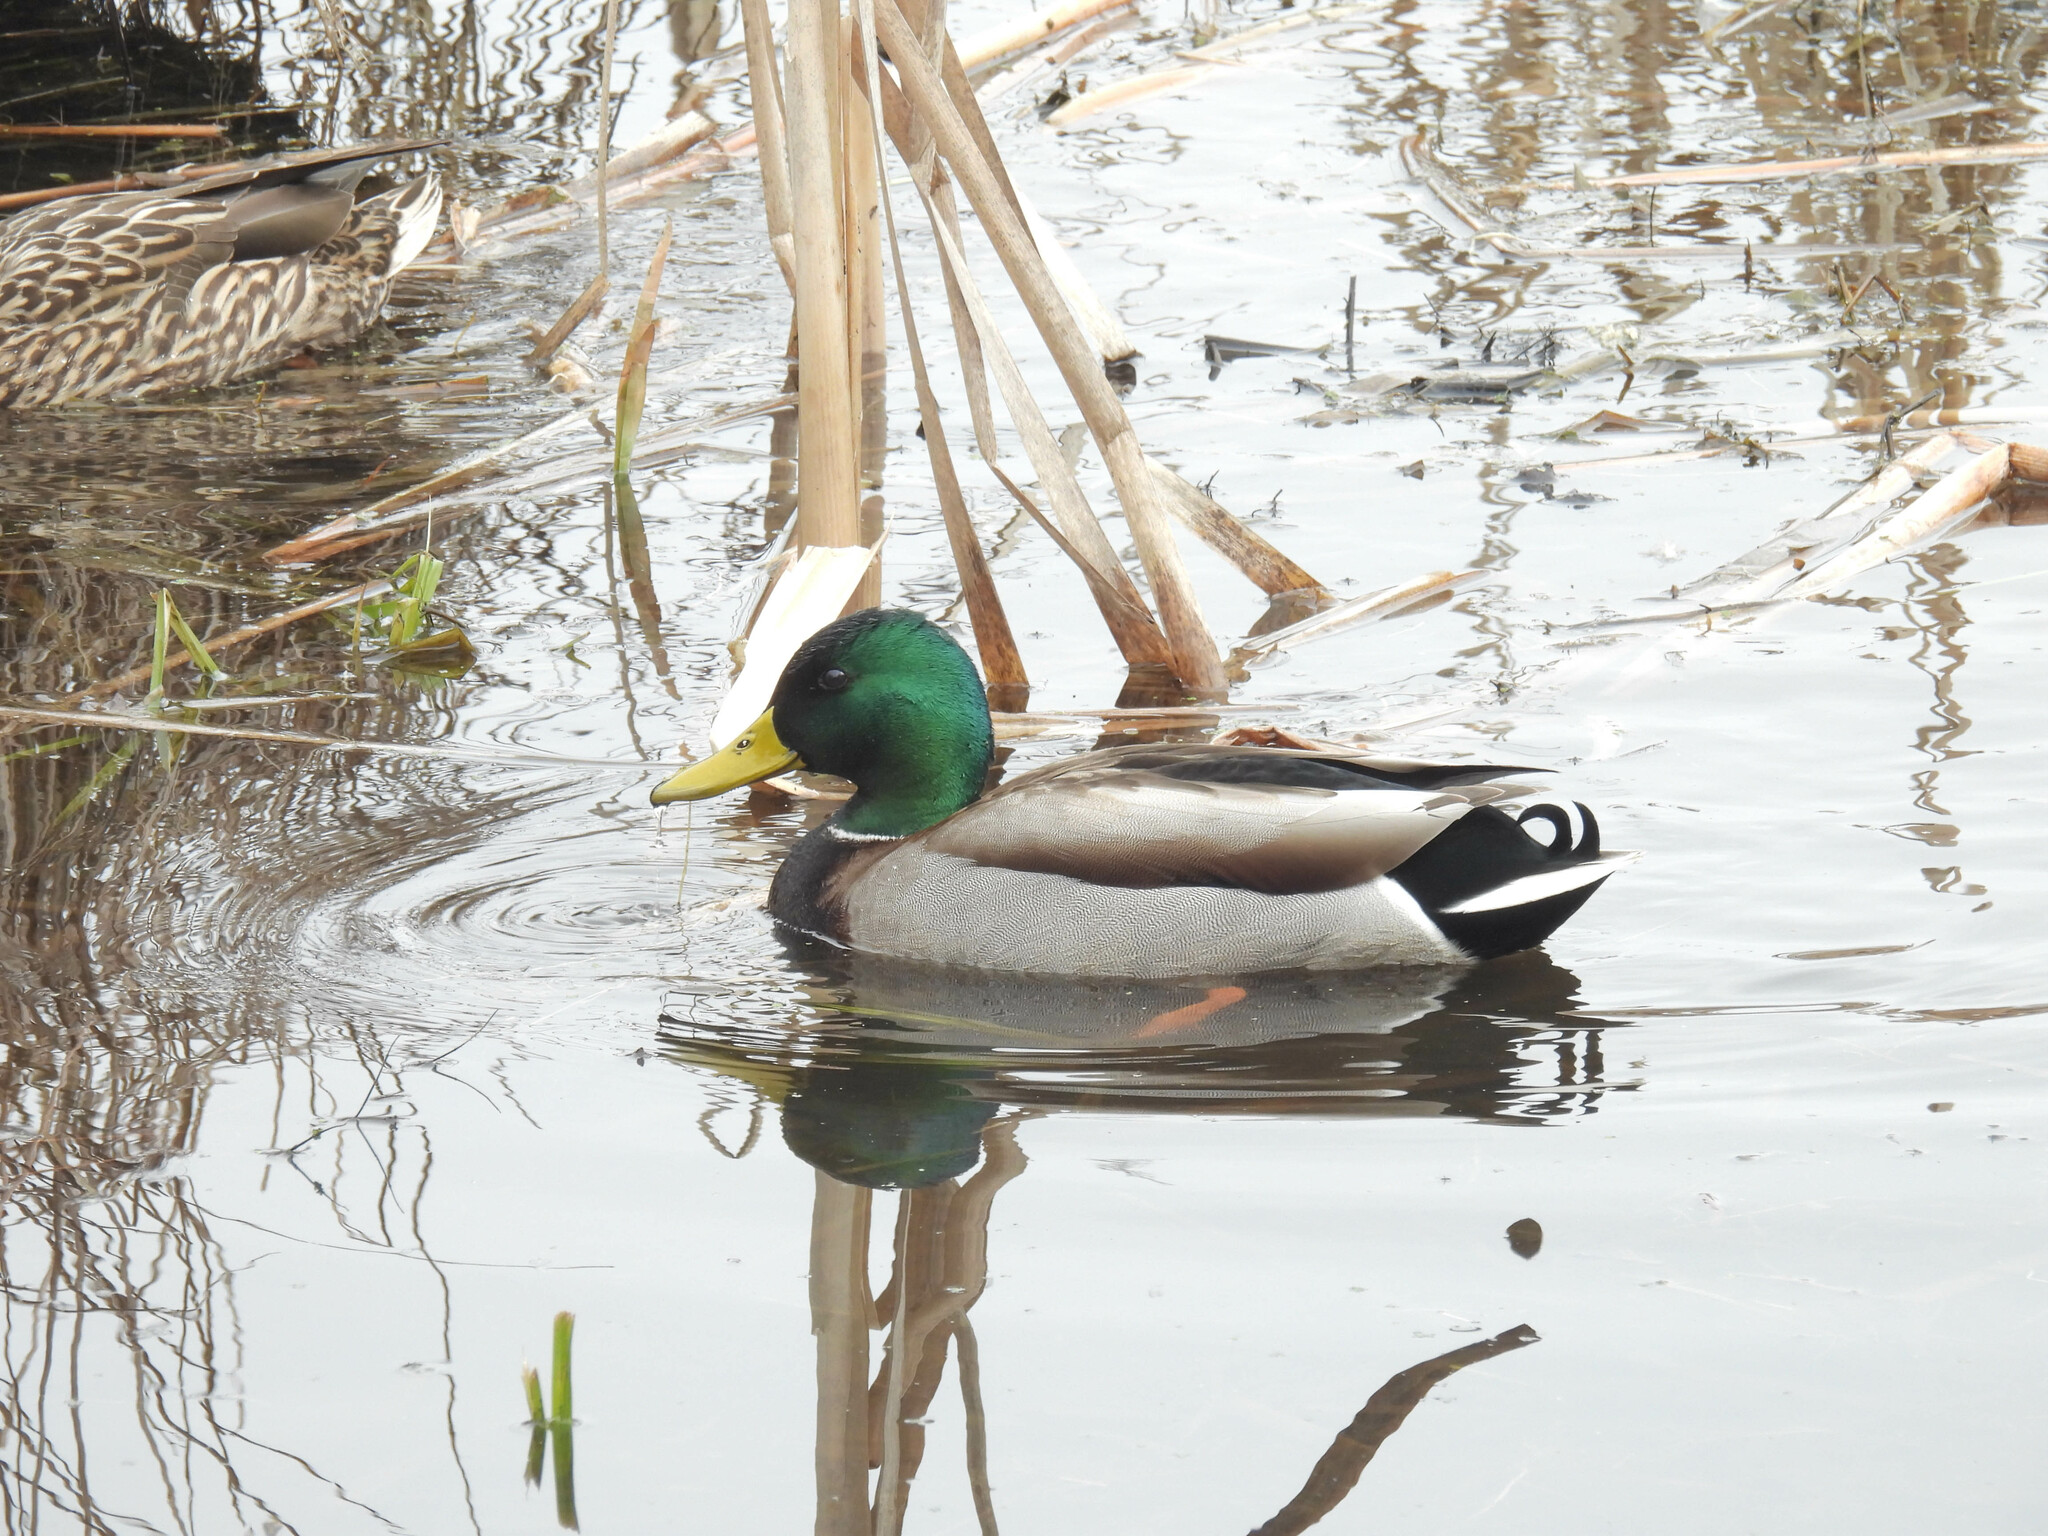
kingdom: Animalia
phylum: Chordata
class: Aves
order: Anseriformes
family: Anatidae
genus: Anas
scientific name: Anas platyrhynchos
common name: Mallard
